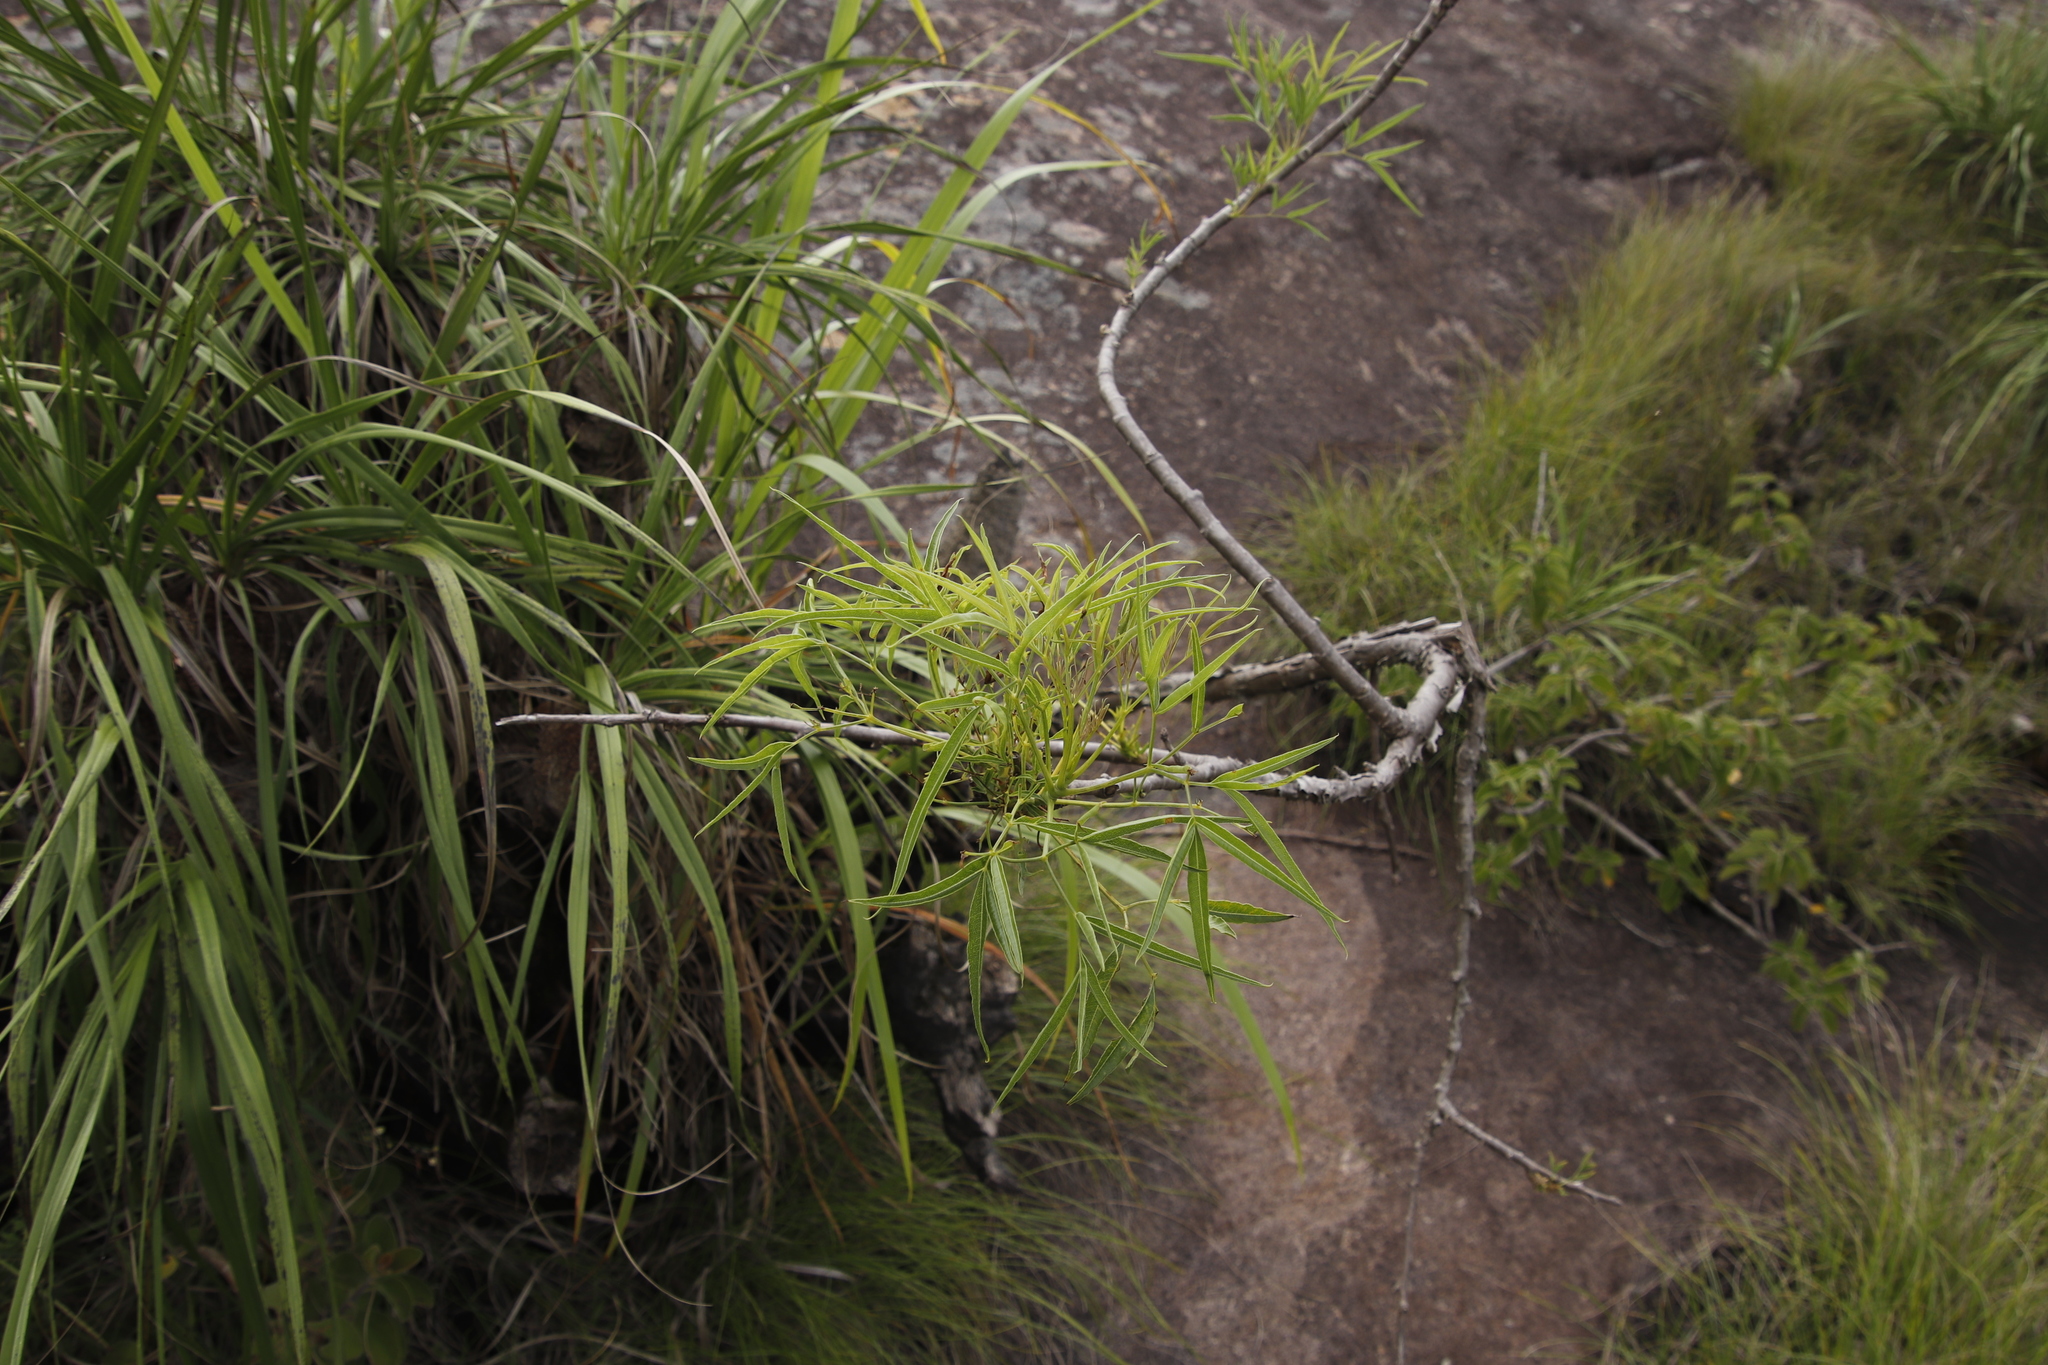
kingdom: Plantae
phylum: Tracheophyta
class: Magnoliopsida
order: Apiales
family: Apiaceae
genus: Heteromorpha
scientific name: Heteromorpha montana
